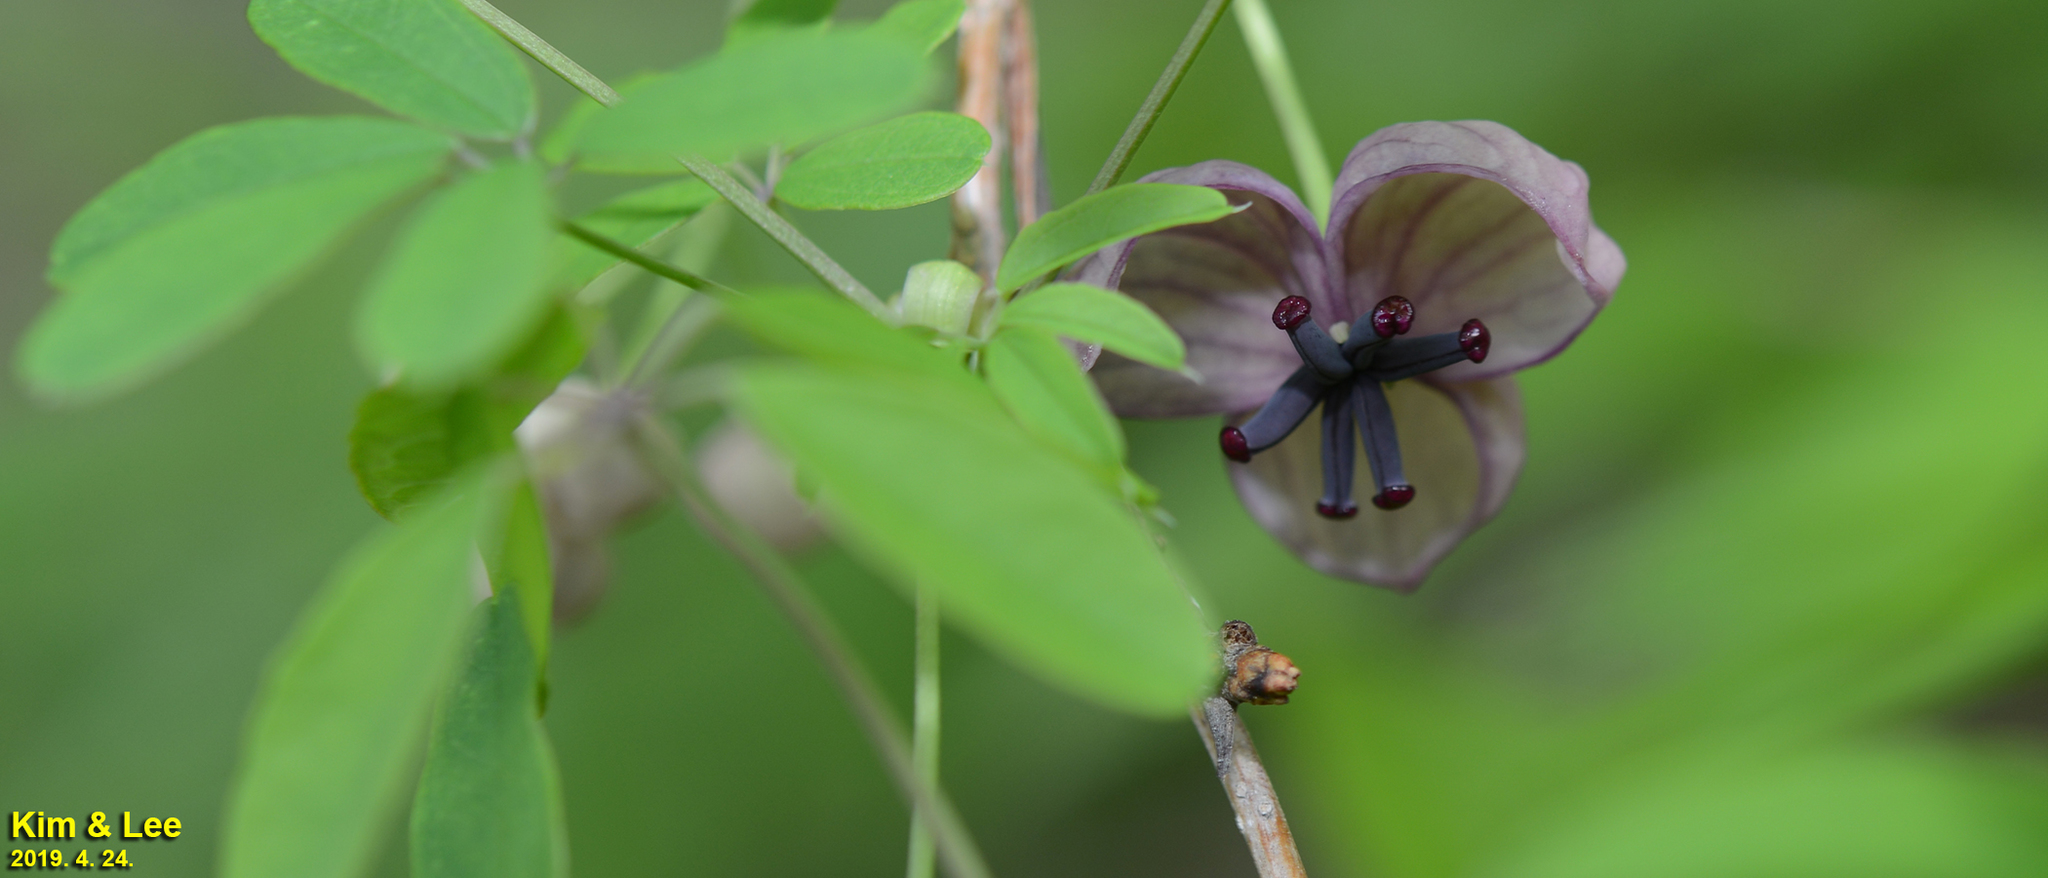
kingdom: Plantae
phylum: Tracheophyta
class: Magnoliopsida
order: Ranunculales
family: Lardizabalaceae
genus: Akebia
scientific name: Akebia quinata
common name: Five-leaf akebia
